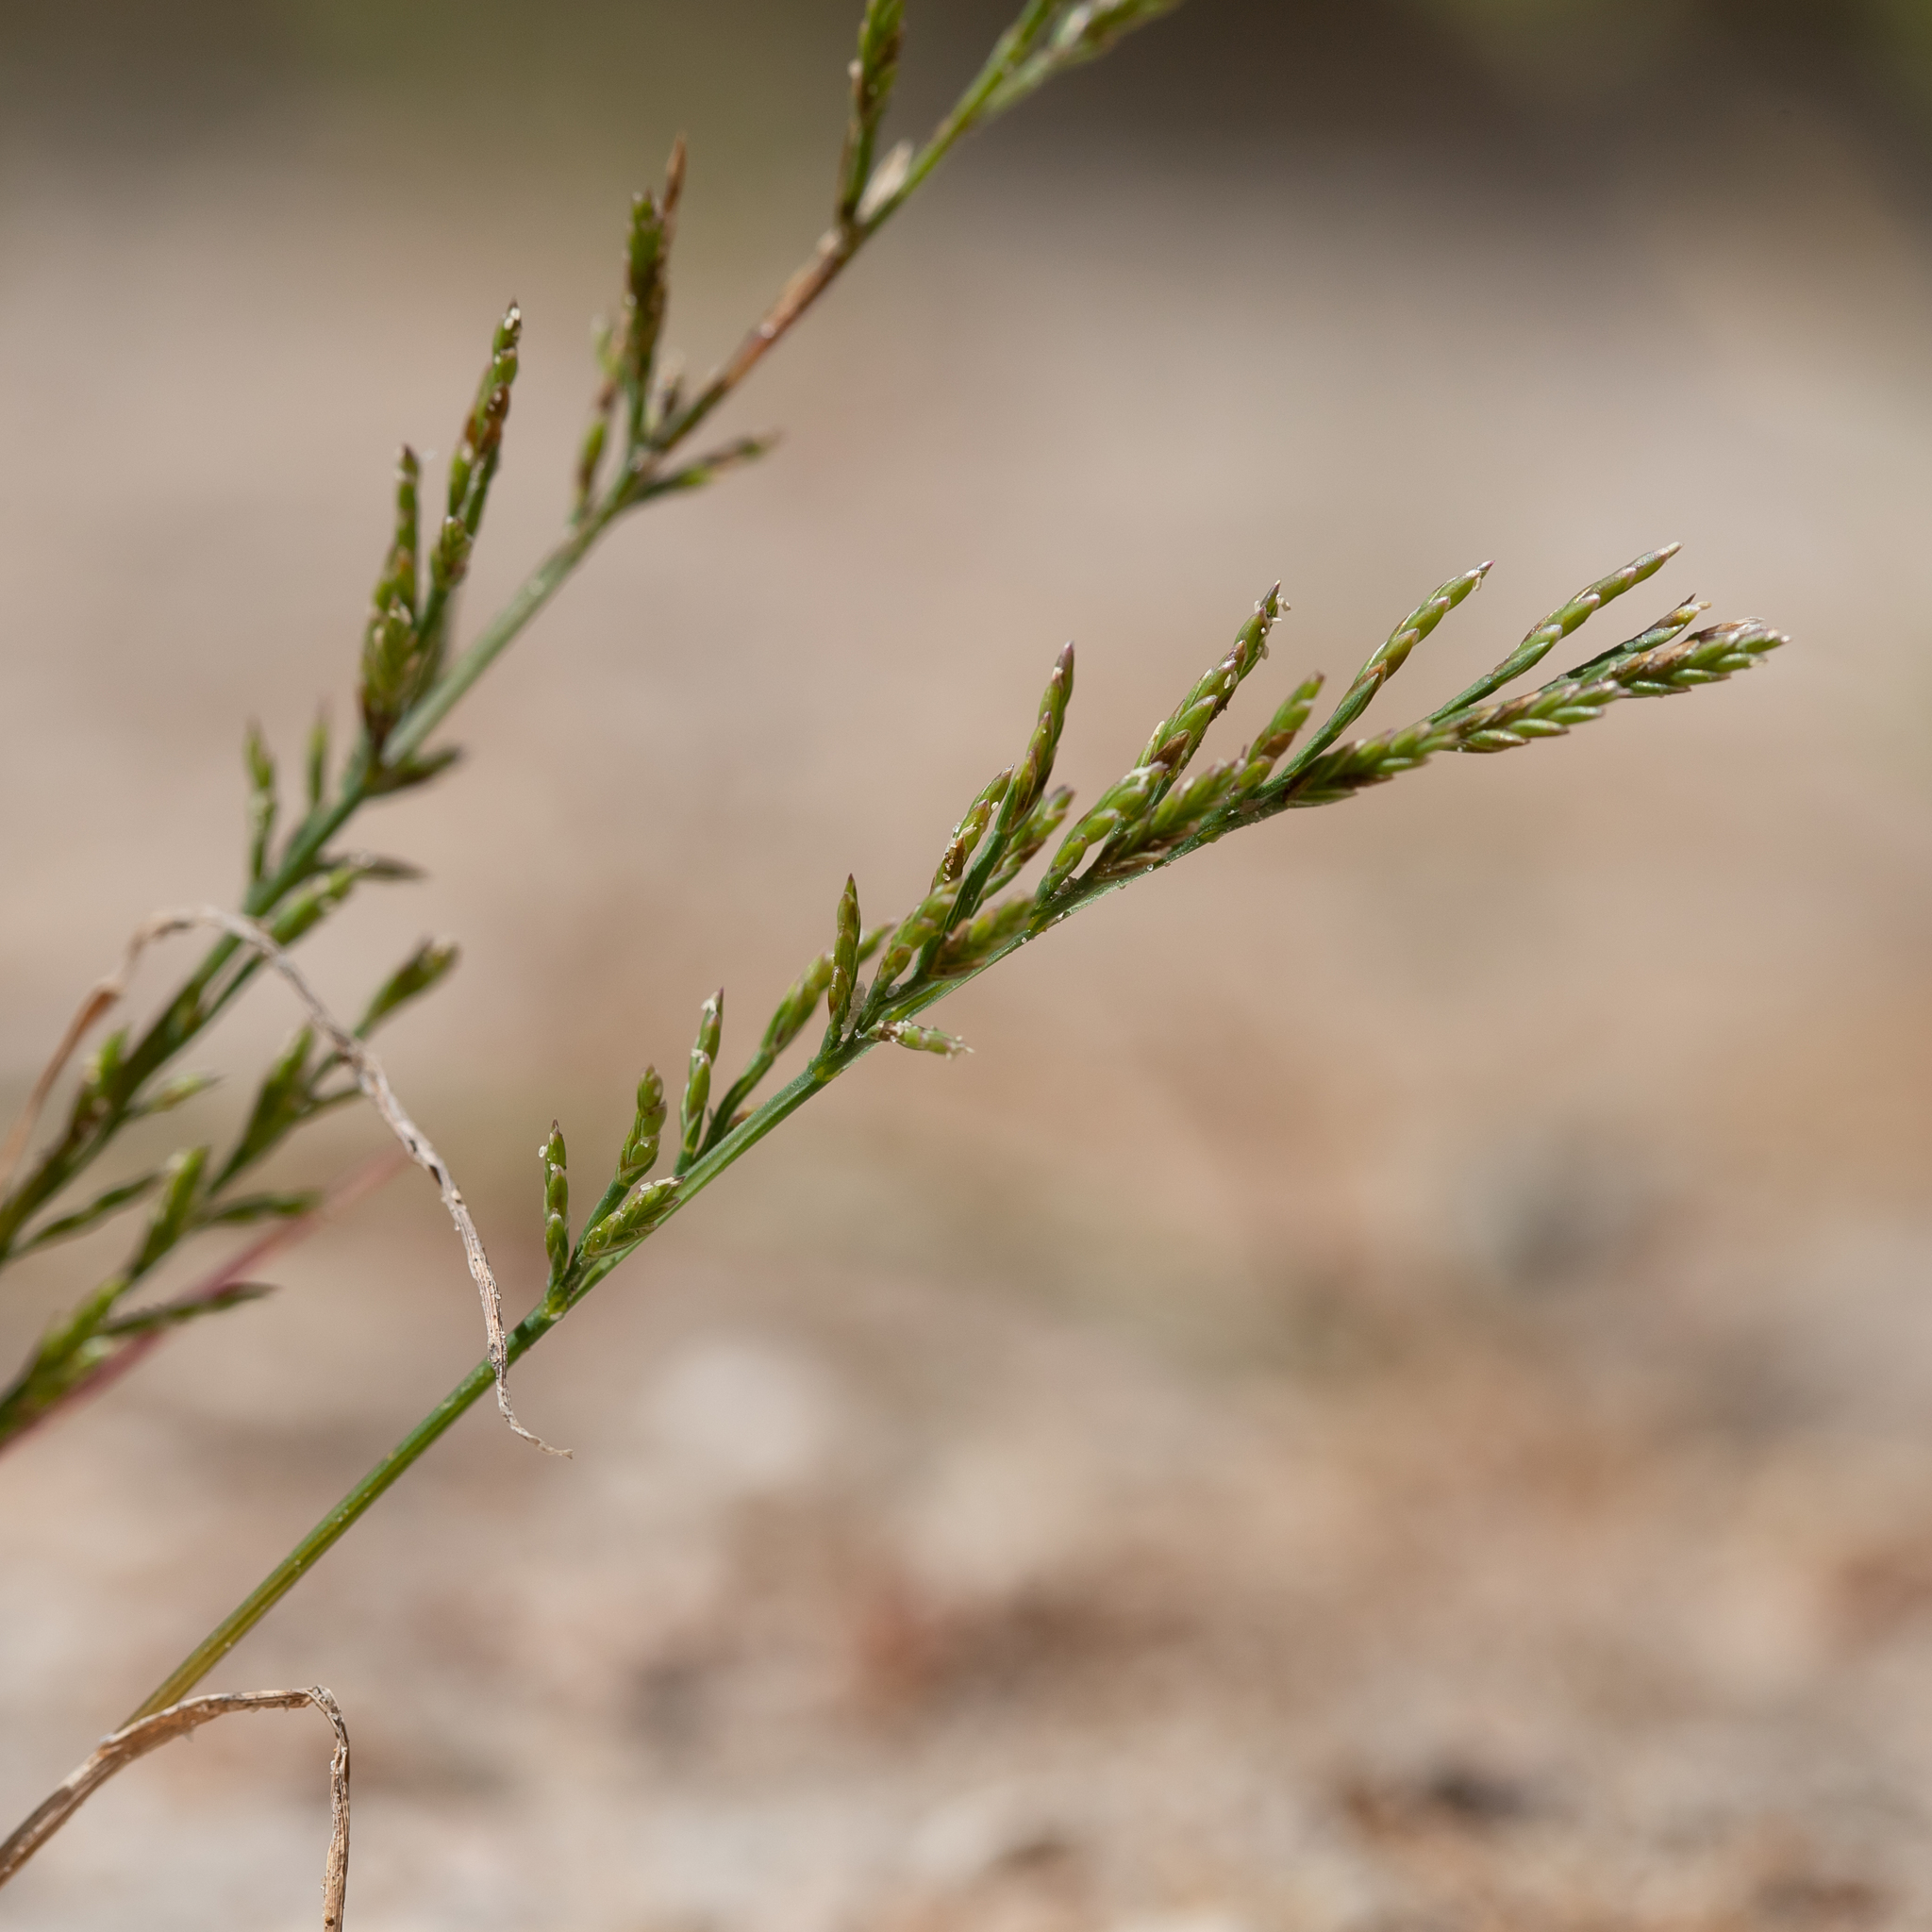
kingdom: Plantae
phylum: Tracheophyta
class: Liliopsida
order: Poales
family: Poaceae
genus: Catapodium
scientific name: Catapodium rigidum
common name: Fern-grass
